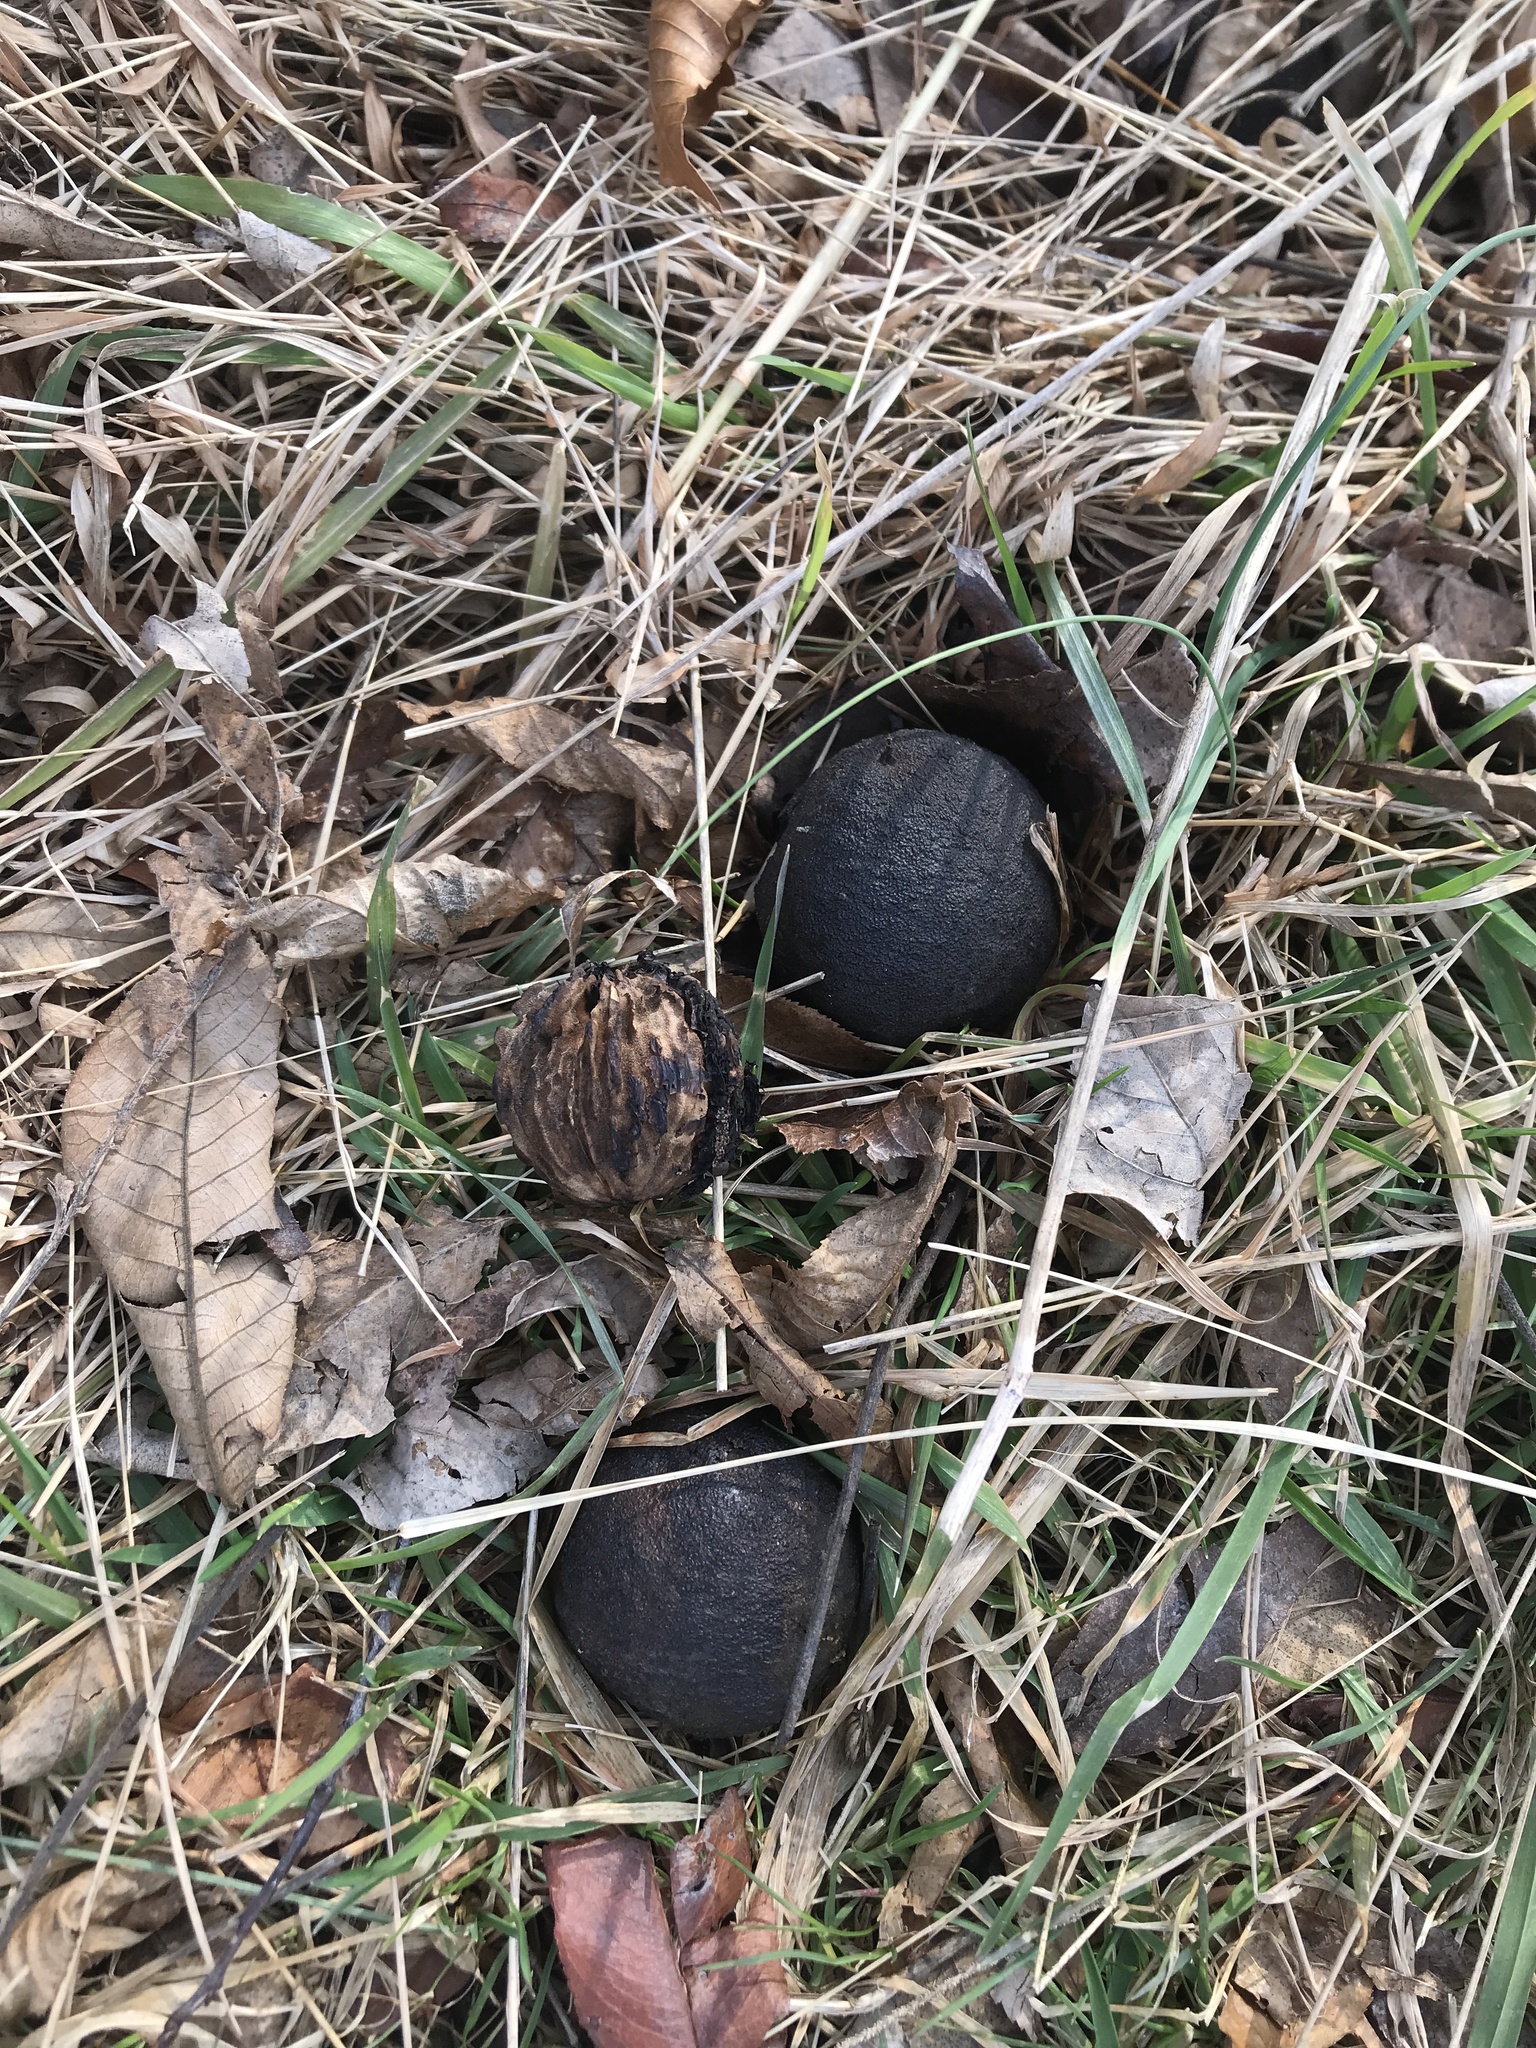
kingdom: Plantae
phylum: Tracheophyta
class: Magnoliopsida
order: Fagales
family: Juglandaceae
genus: Juglans
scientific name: Juglans nigra
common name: Black walnut
